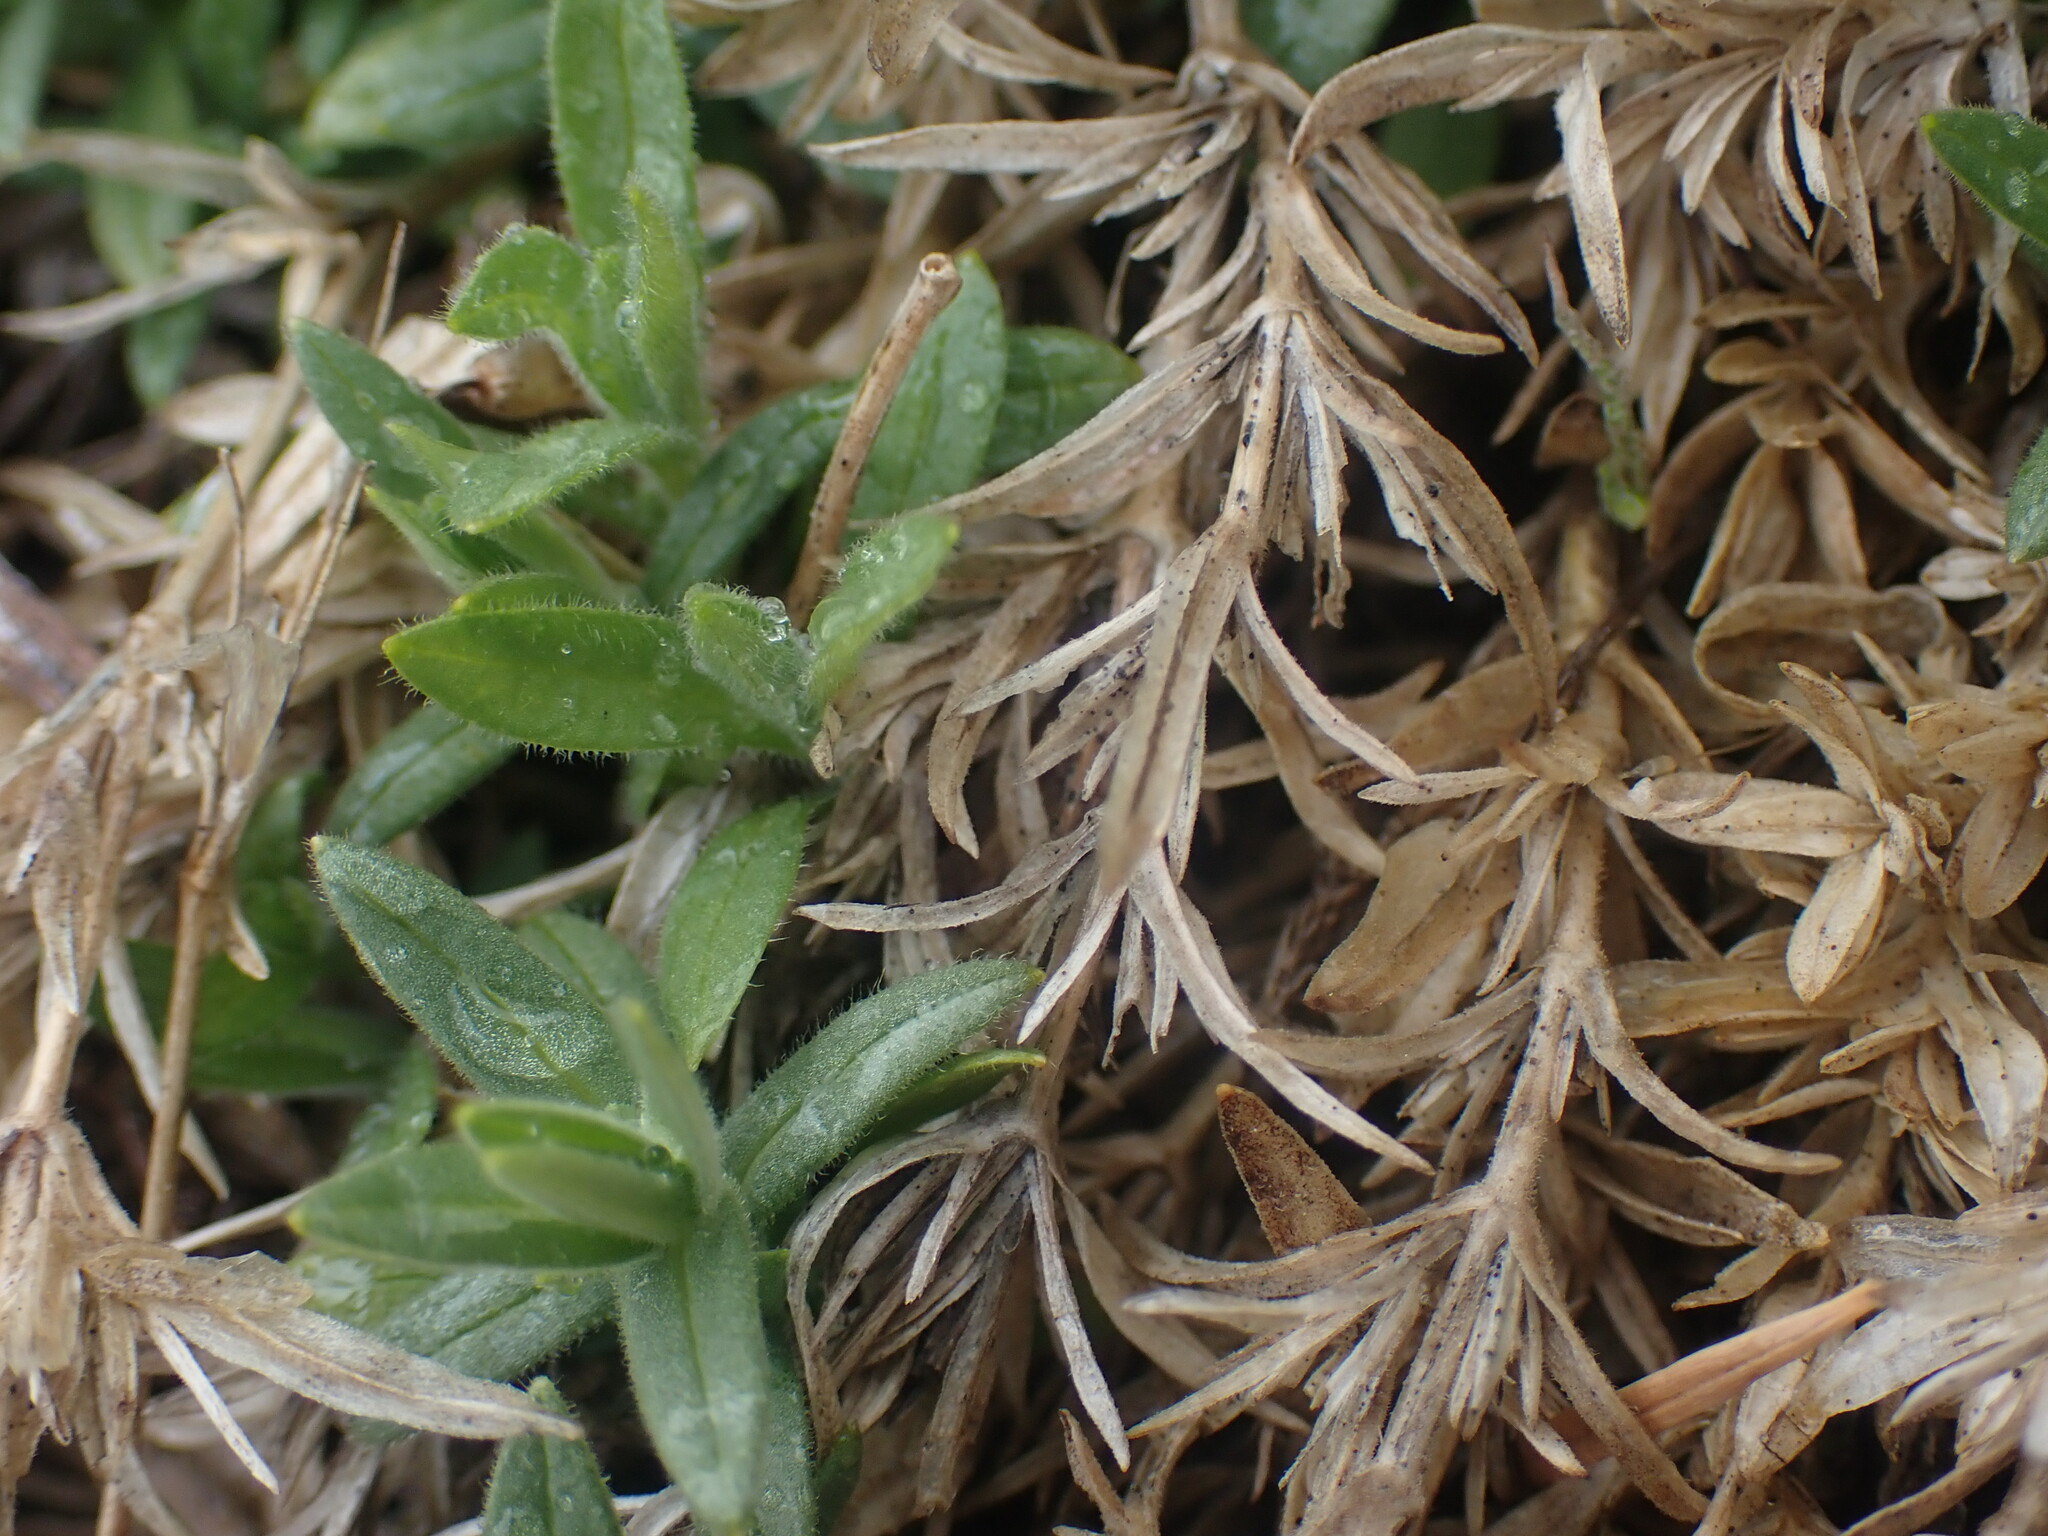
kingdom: Plantae
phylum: Tracheophyta
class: Magnoliopsida
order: Caryophyllales
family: Caryophyllaceae
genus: Cerastium
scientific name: Cerastium arvense
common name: Field mouse-ear
